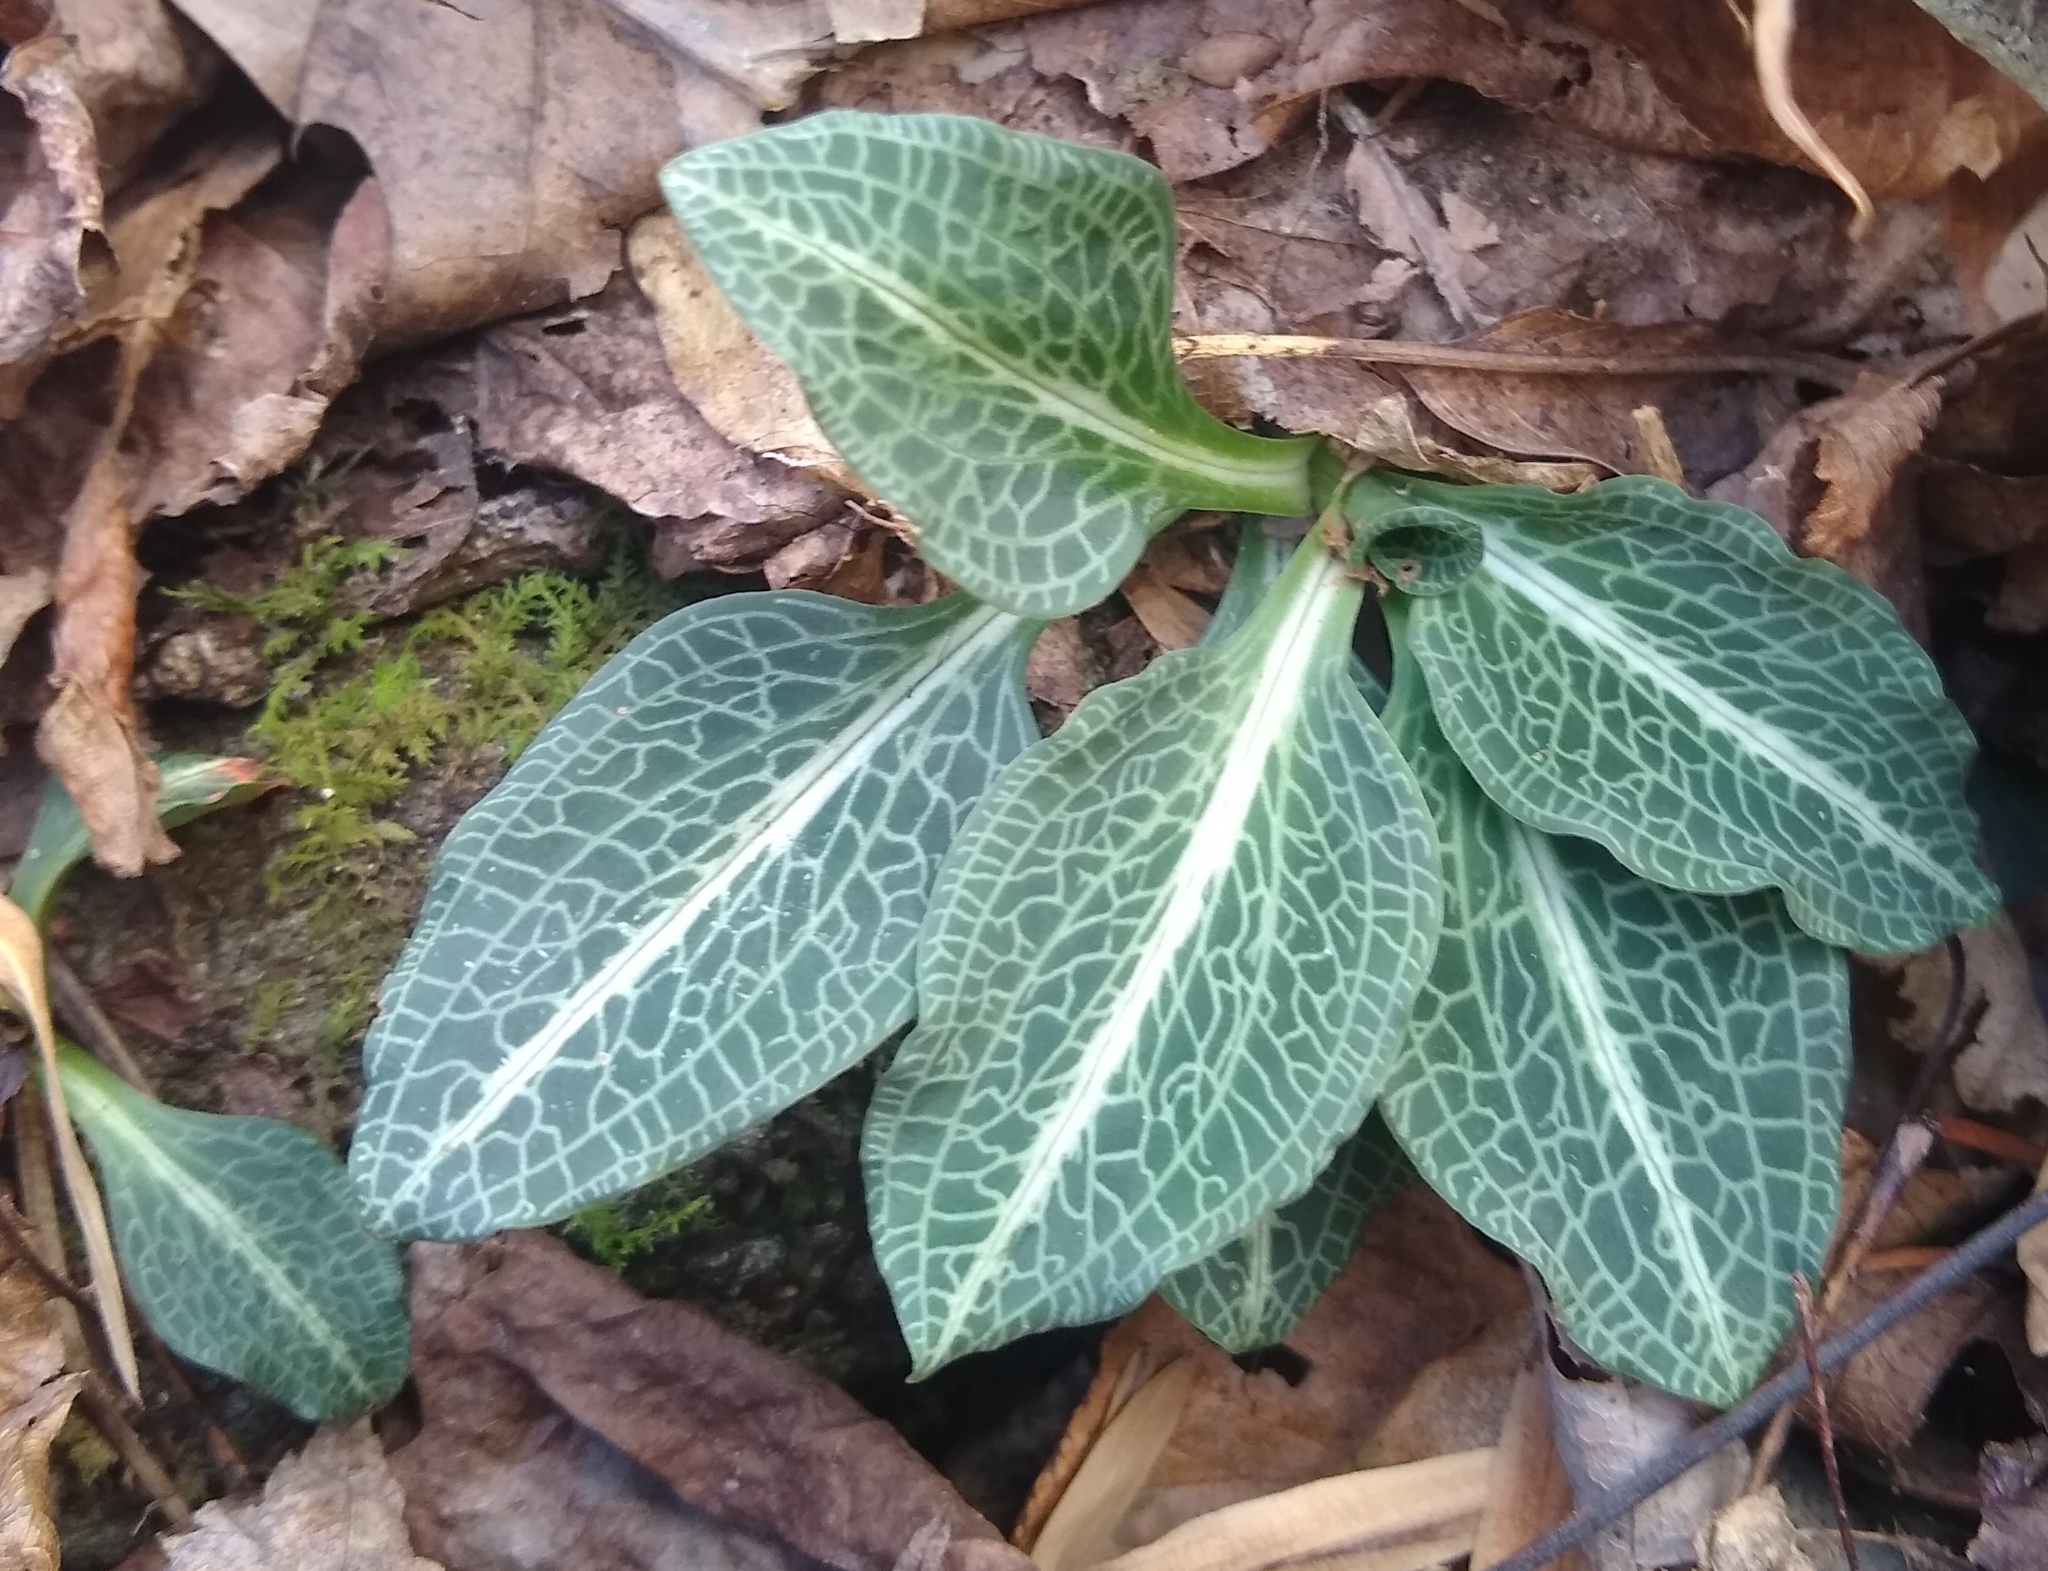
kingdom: Plantae
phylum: Tracheophyta
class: Liliopsida
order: Asparagales
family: Orchidaceae
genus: Goodyera
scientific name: Goodyera pubescens
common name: Downy rattlesnake-plantain
